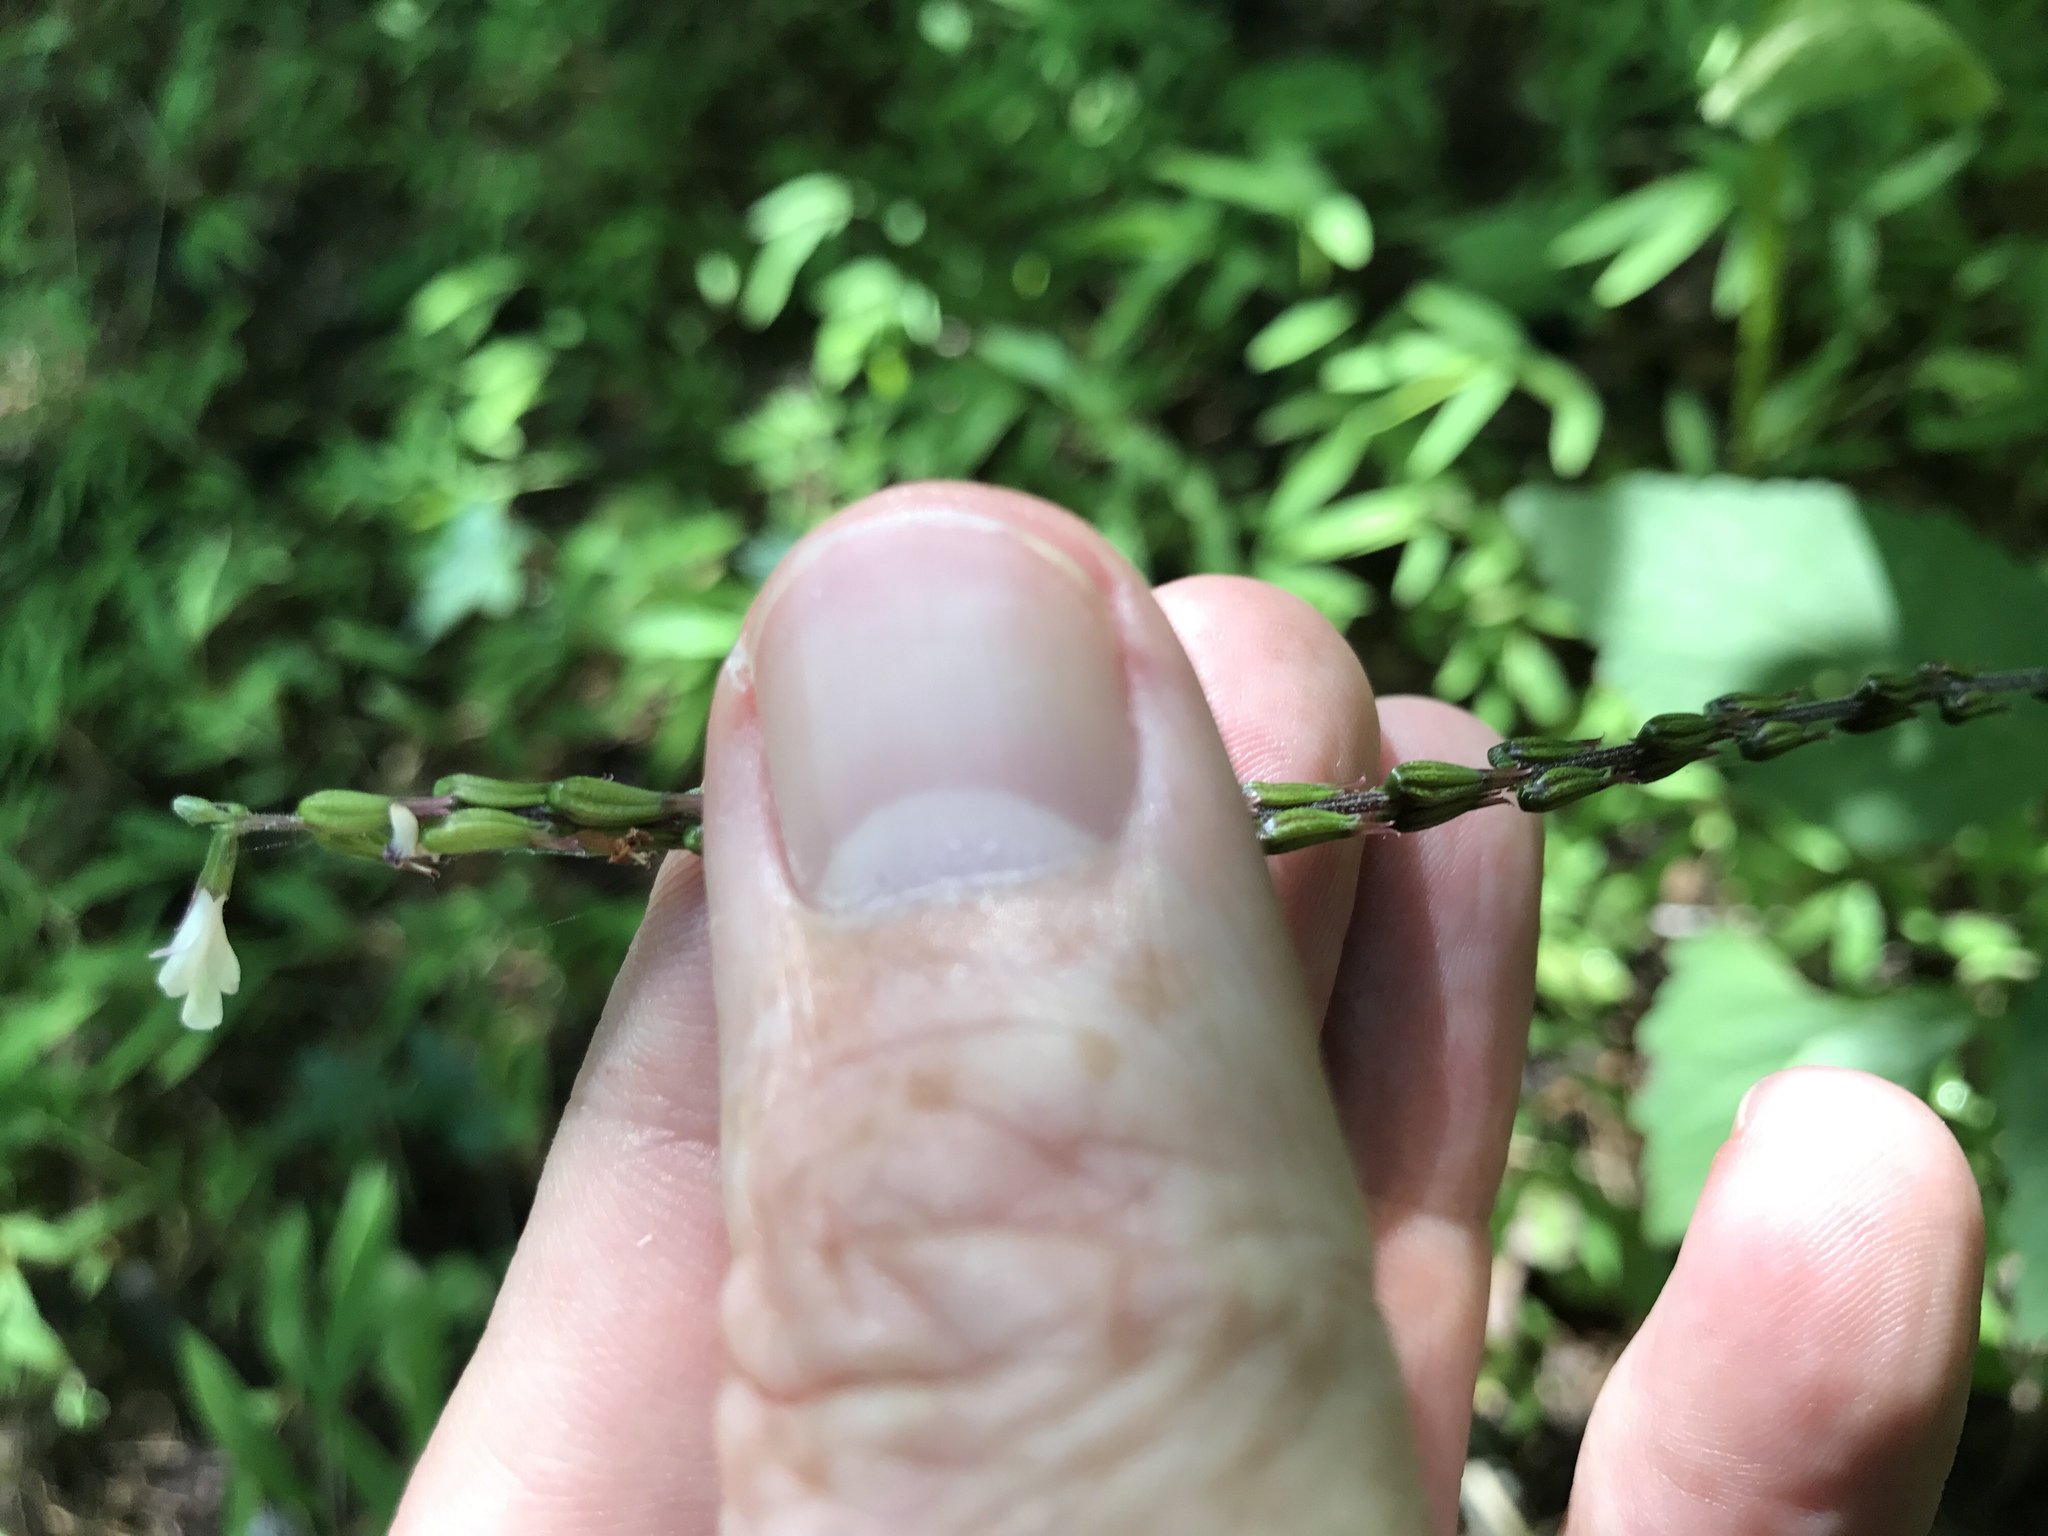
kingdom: Plantae
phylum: Tracheophyta
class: Magnoliopsida
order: Lamiales
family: Phrymaceae
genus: Phryma
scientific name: Phryma leptostachya
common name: American lopseed
